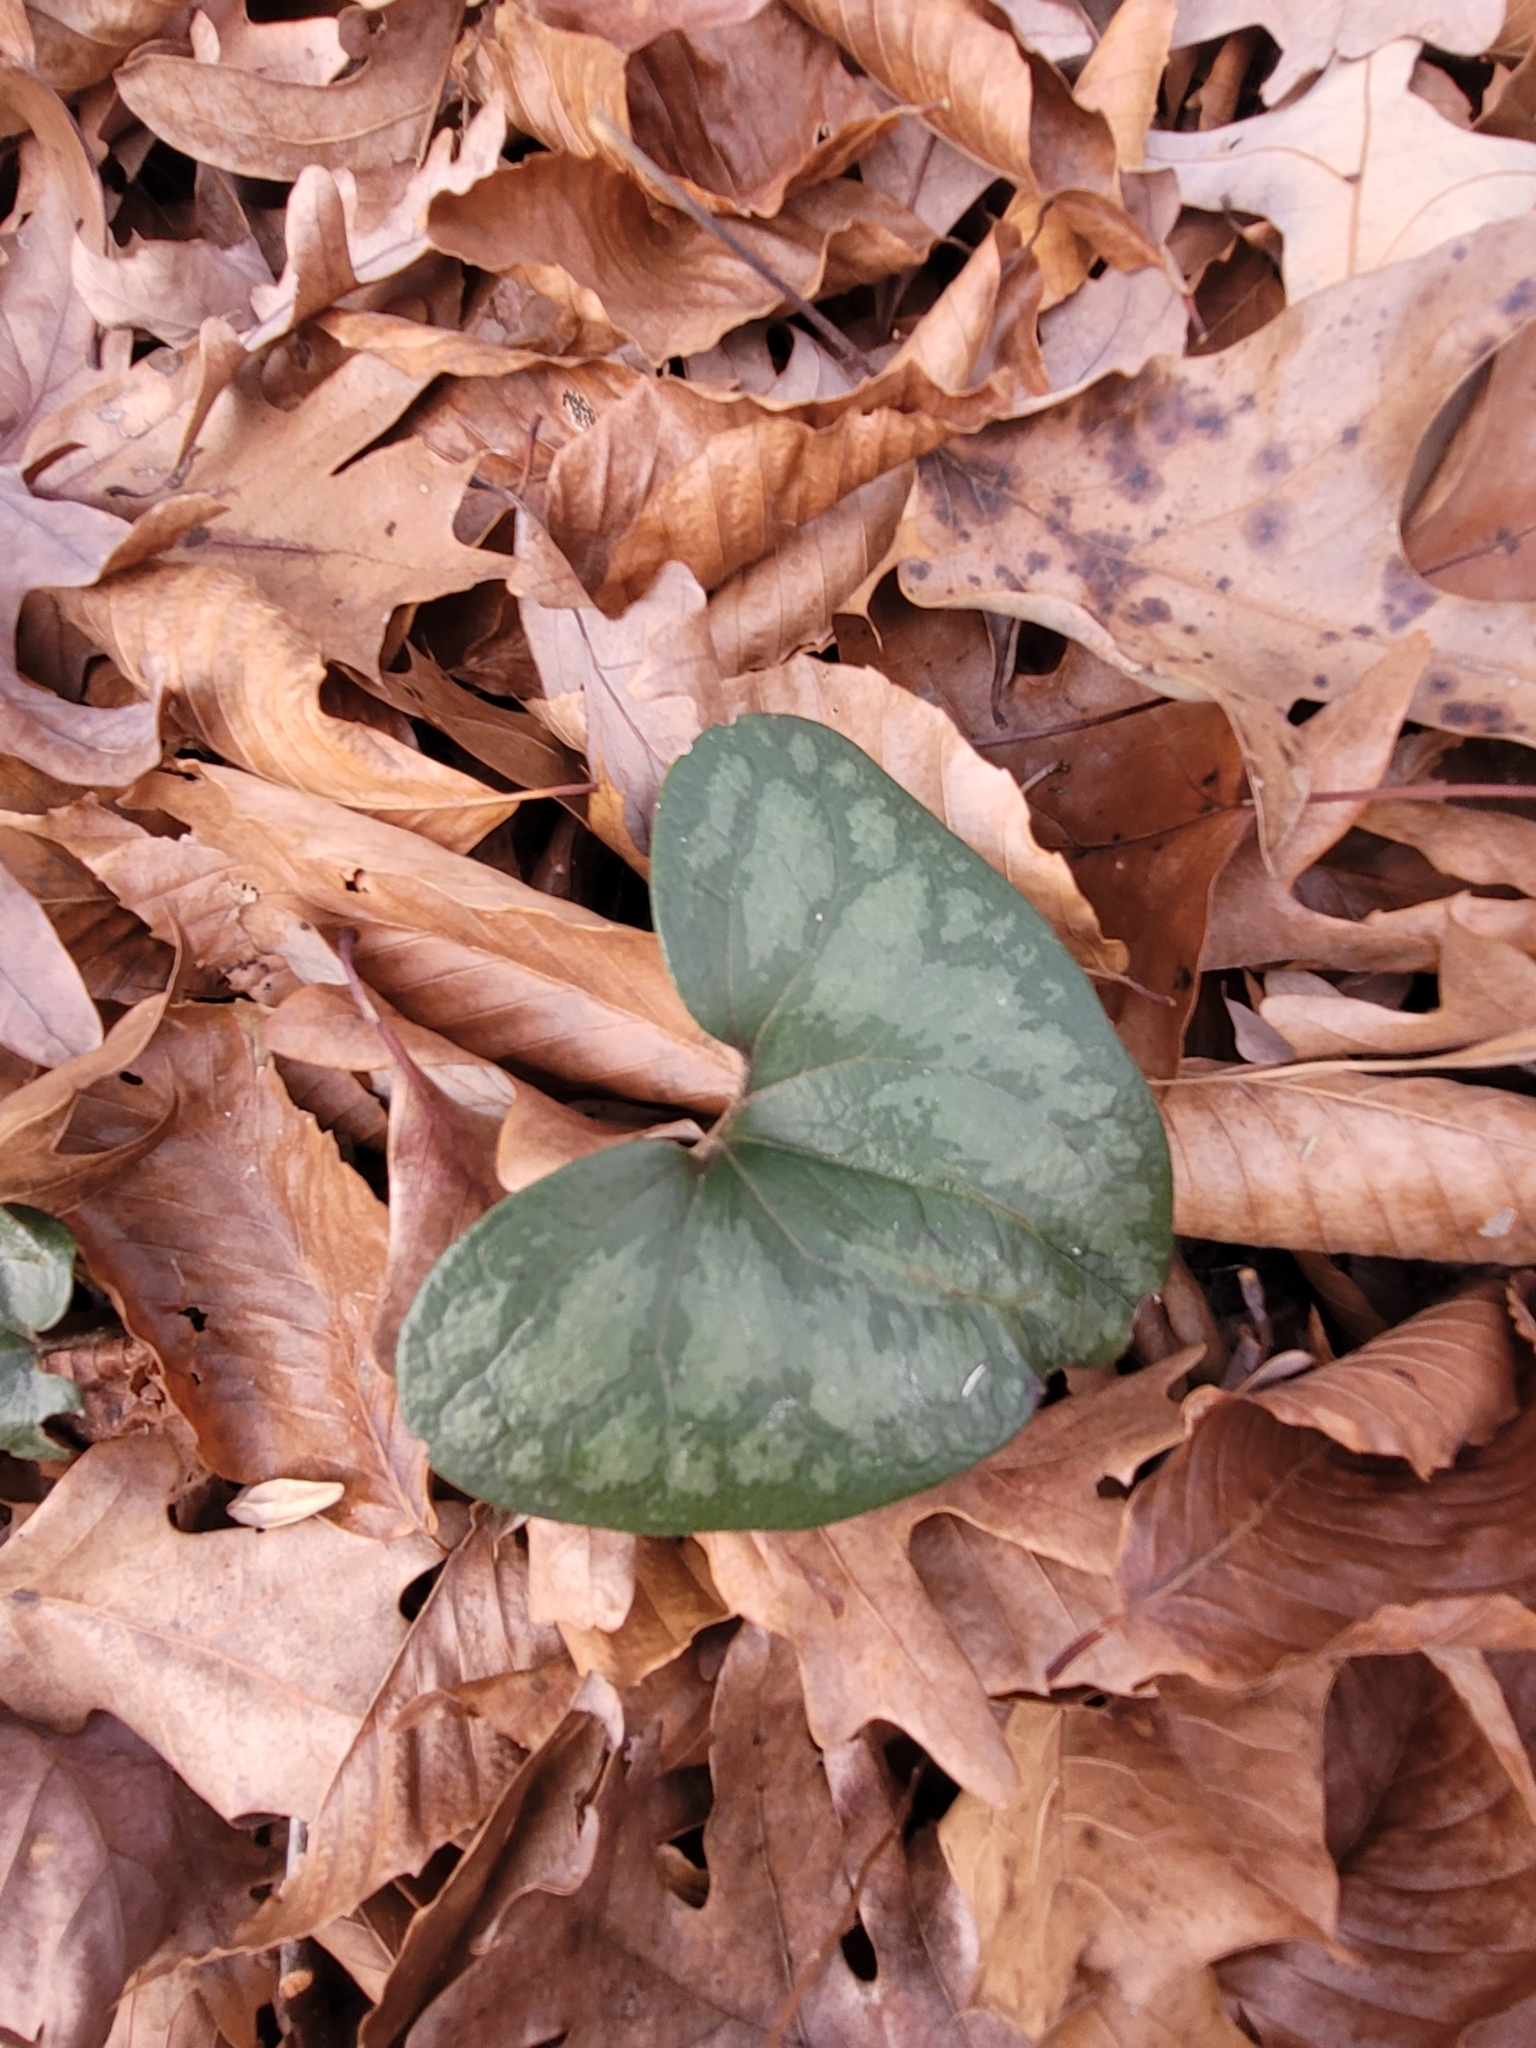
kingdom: Plantae
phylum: Tracheophyta
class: Magnoliopsida
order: Piperales
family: Aristolochiaceae
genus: Hexastylis
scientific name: Hexastylis arifolia
